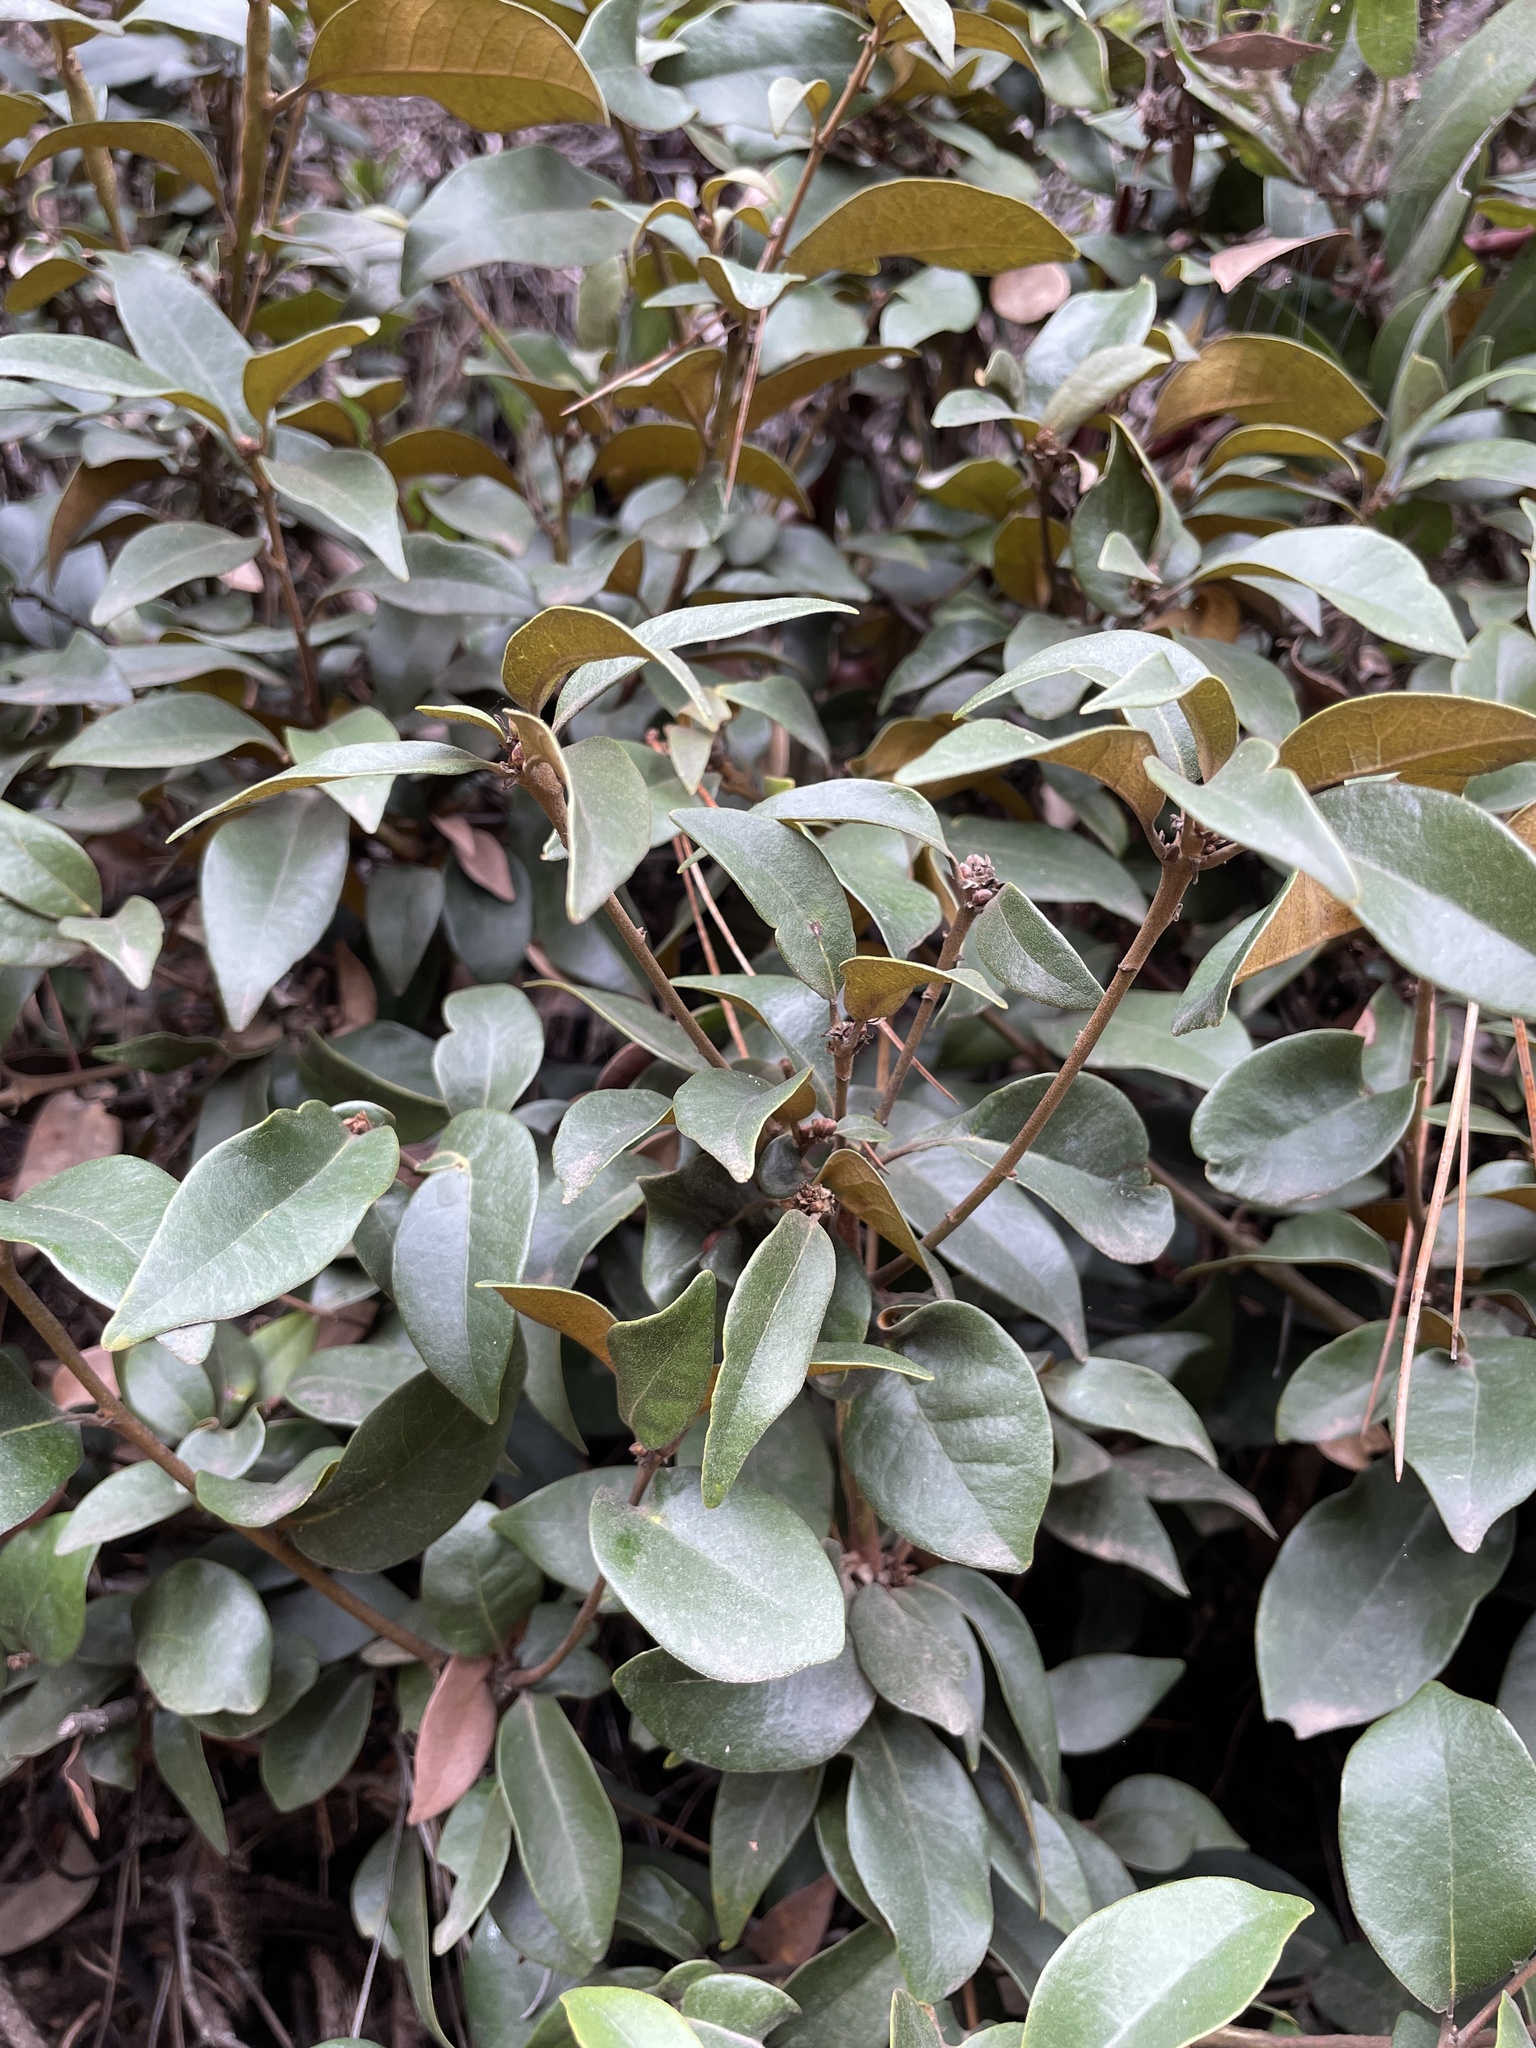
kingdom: Plantae
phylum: Tracheophyta
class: Magnoliopsida
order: Fagales
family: Fagaceae
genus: Chrysolepis
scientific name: Chrysolepis chrysophylla
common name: Giant chinquapin
